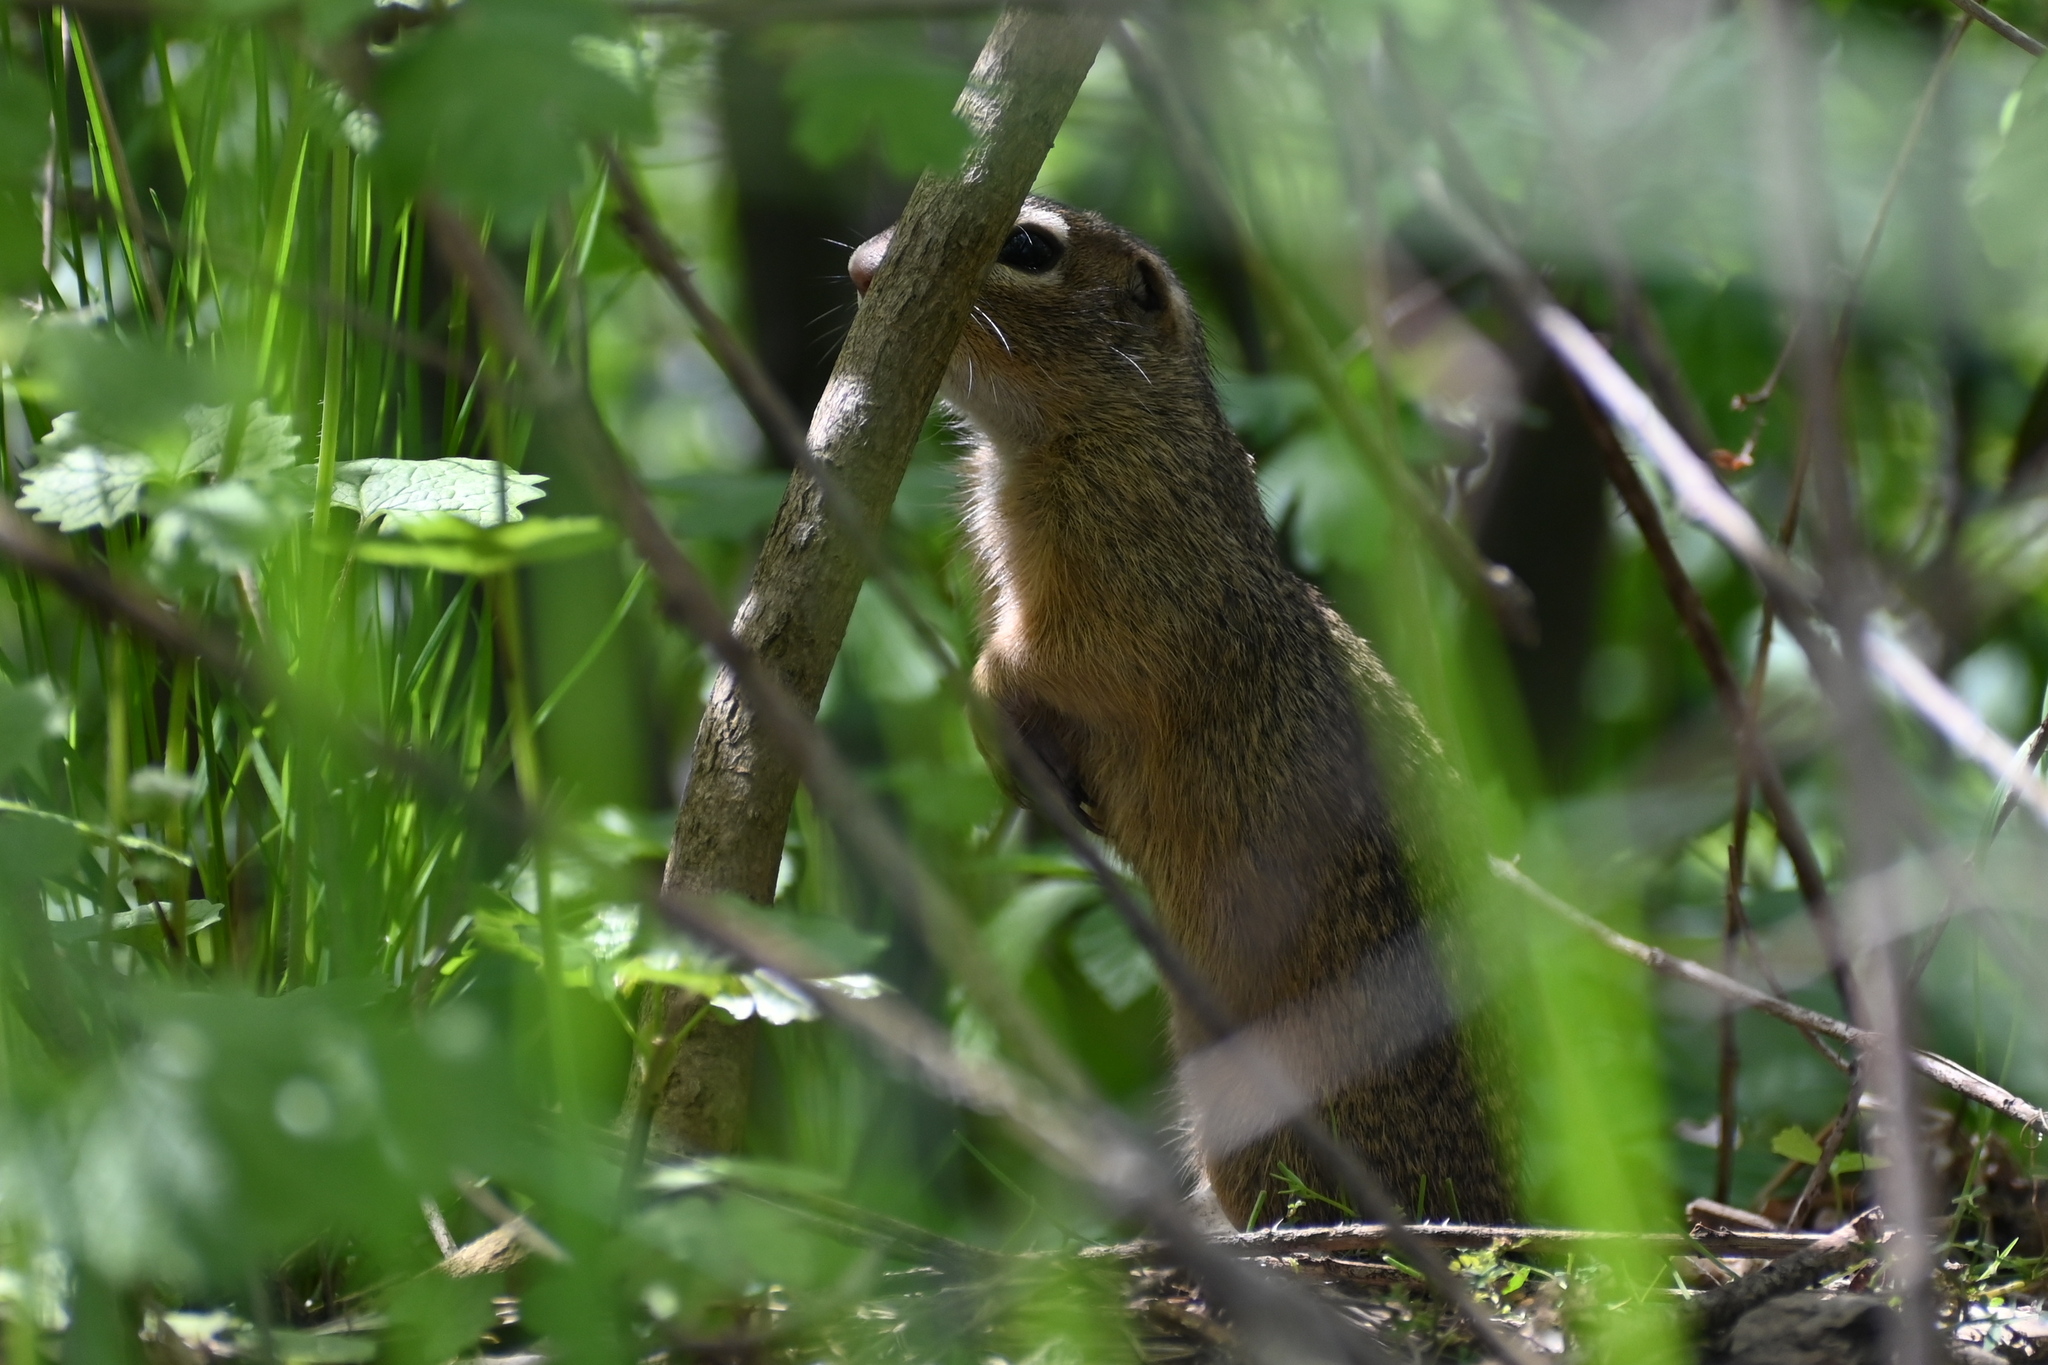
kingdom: Animalia
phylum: Chordata
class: Mammalia
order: Rodentia
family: Sciuridae
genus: Spermophilus
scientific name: Spermophilus citellus
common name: European ground squirrel
